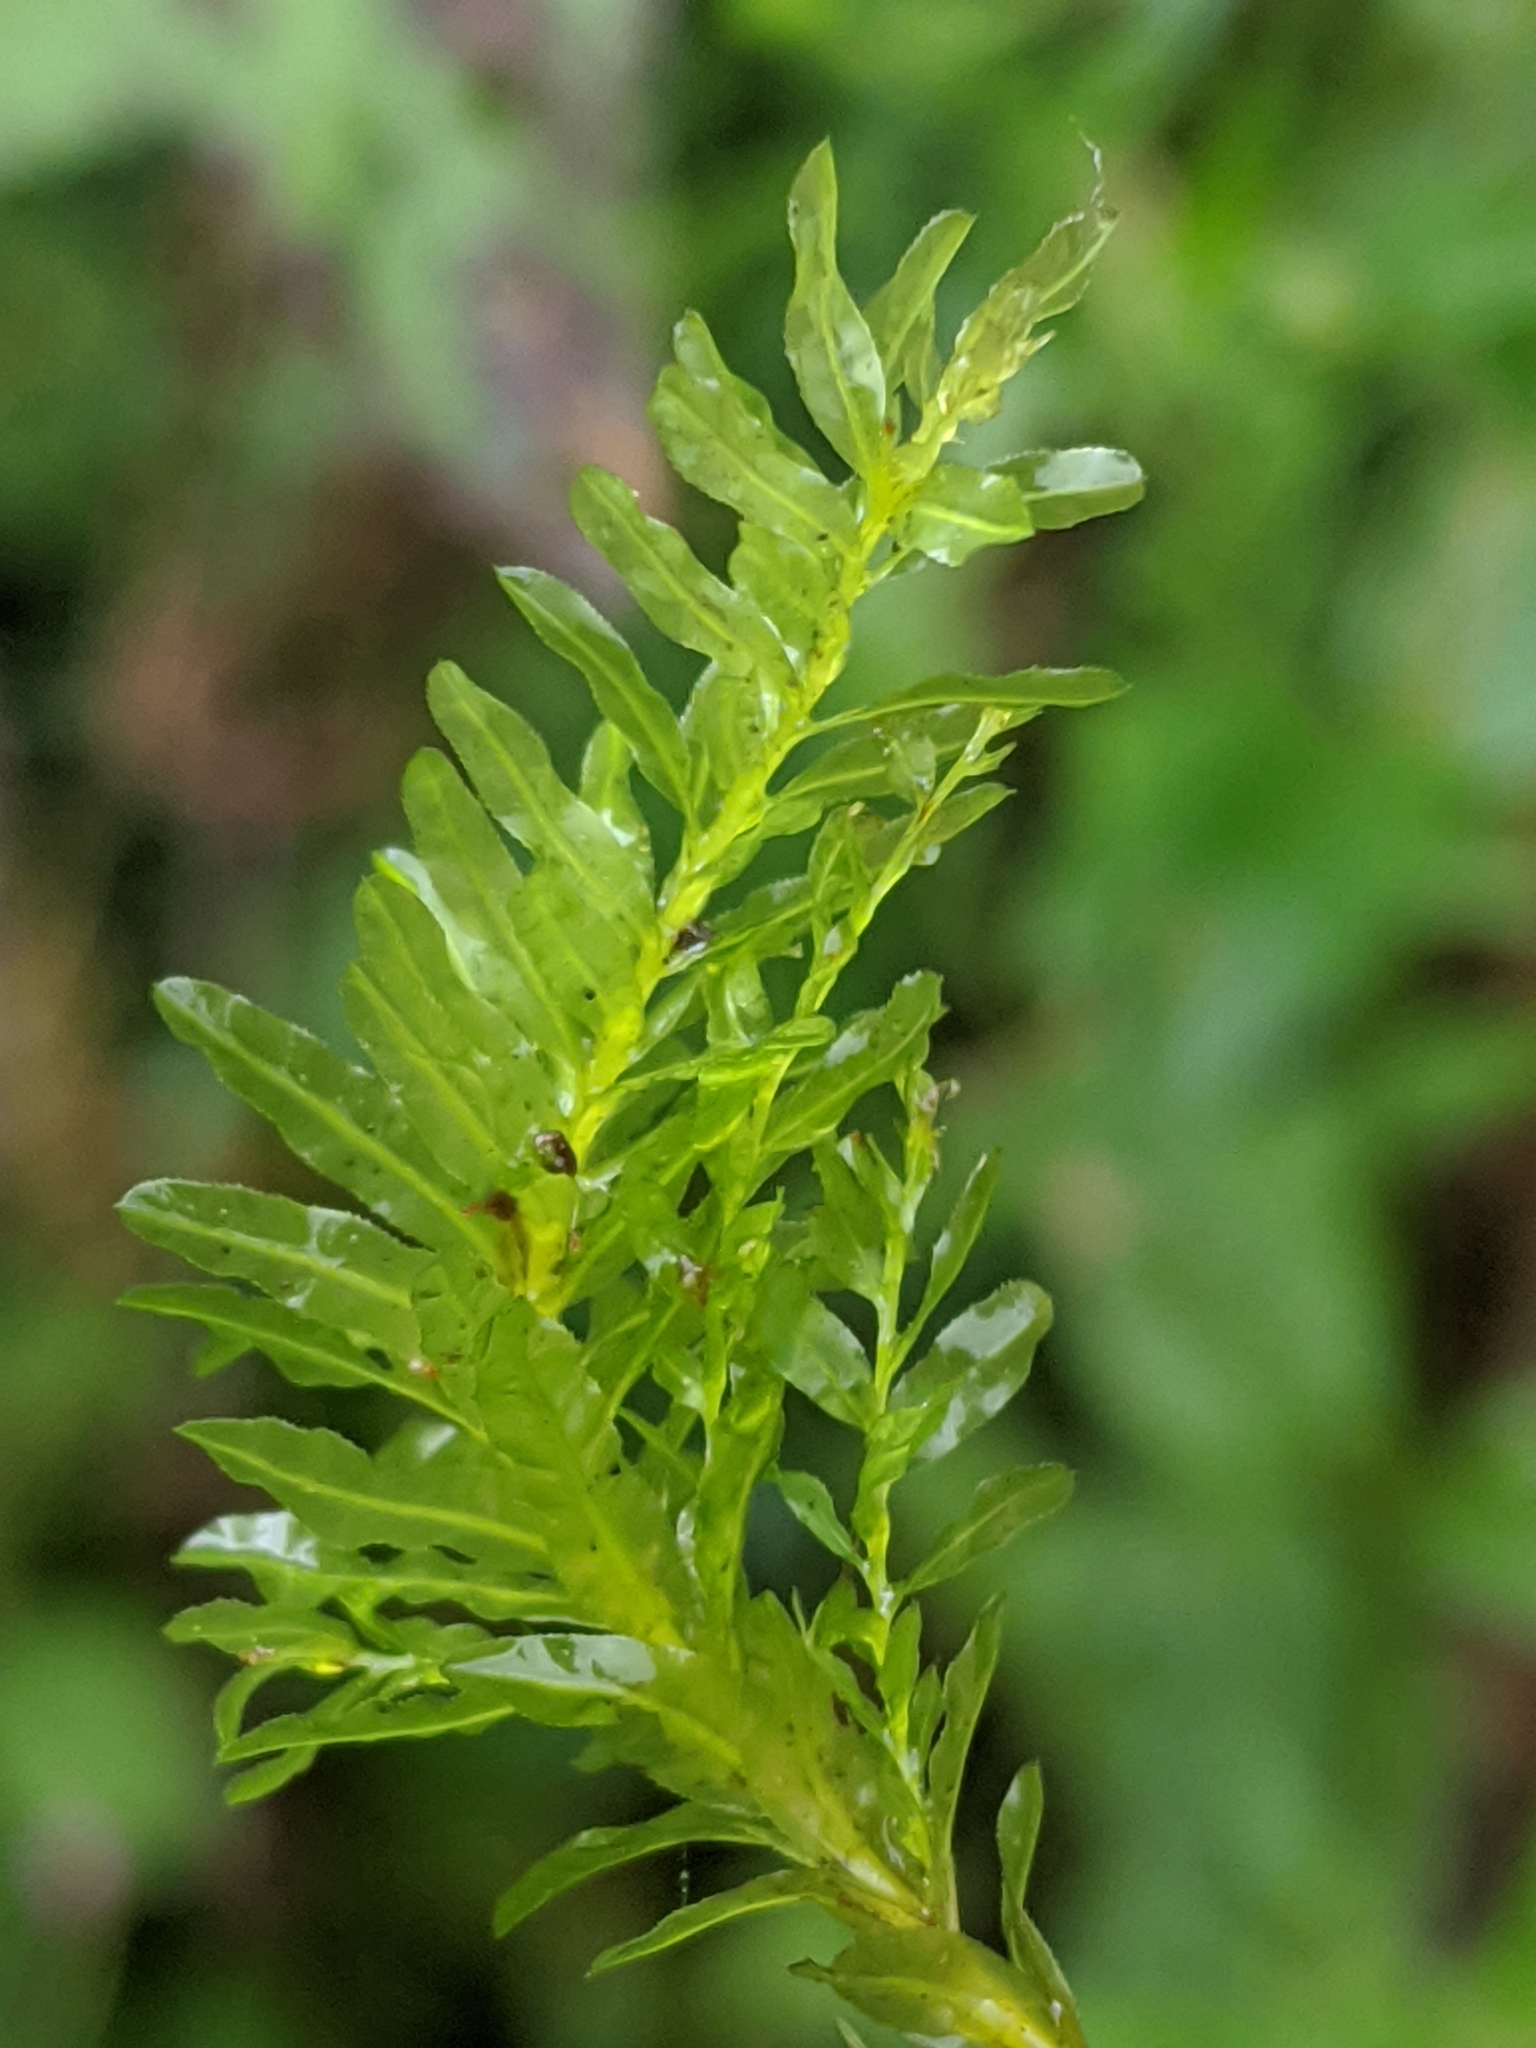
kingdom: Plantae
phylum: Bryophyta
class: Bryopsida
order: Bryales
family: Mniaceae
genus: Plagiomnium
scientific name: Plagiomnium undulatum
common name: Hart's-tongue thyme-moss
